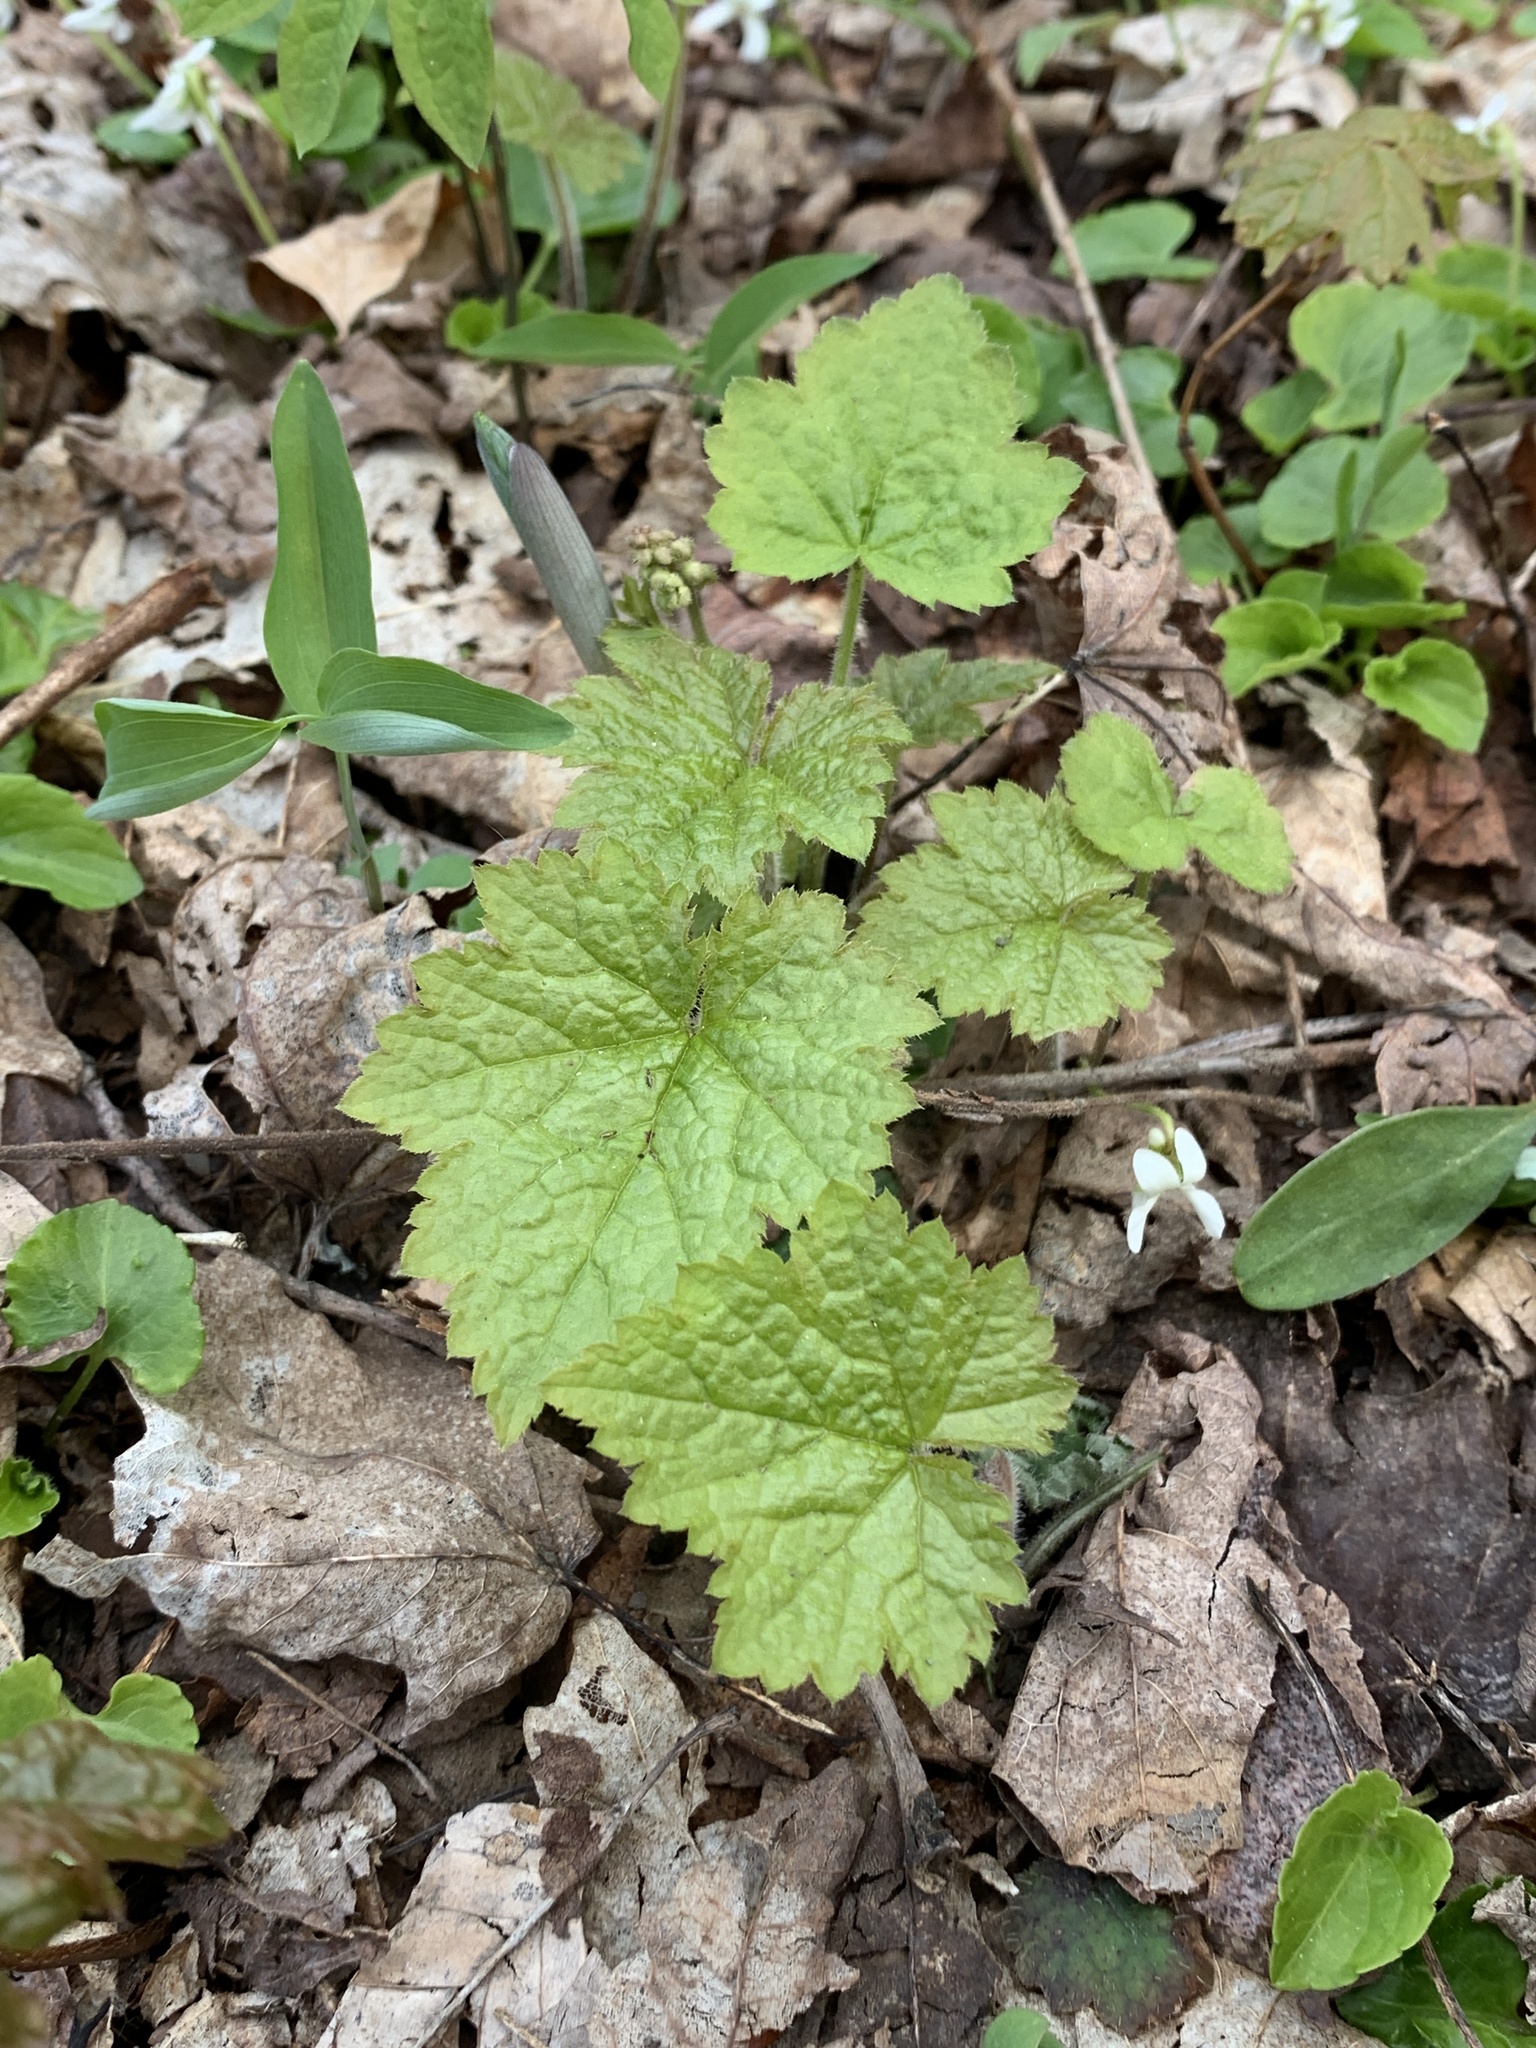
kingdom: Plantae
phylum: Tracheophyta
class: Magnoliopsida
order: Saxifragales
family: Saxifragaceae
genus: Tiarella
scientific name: Tiarella stolonifera
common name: Stoloniferous foamflower
